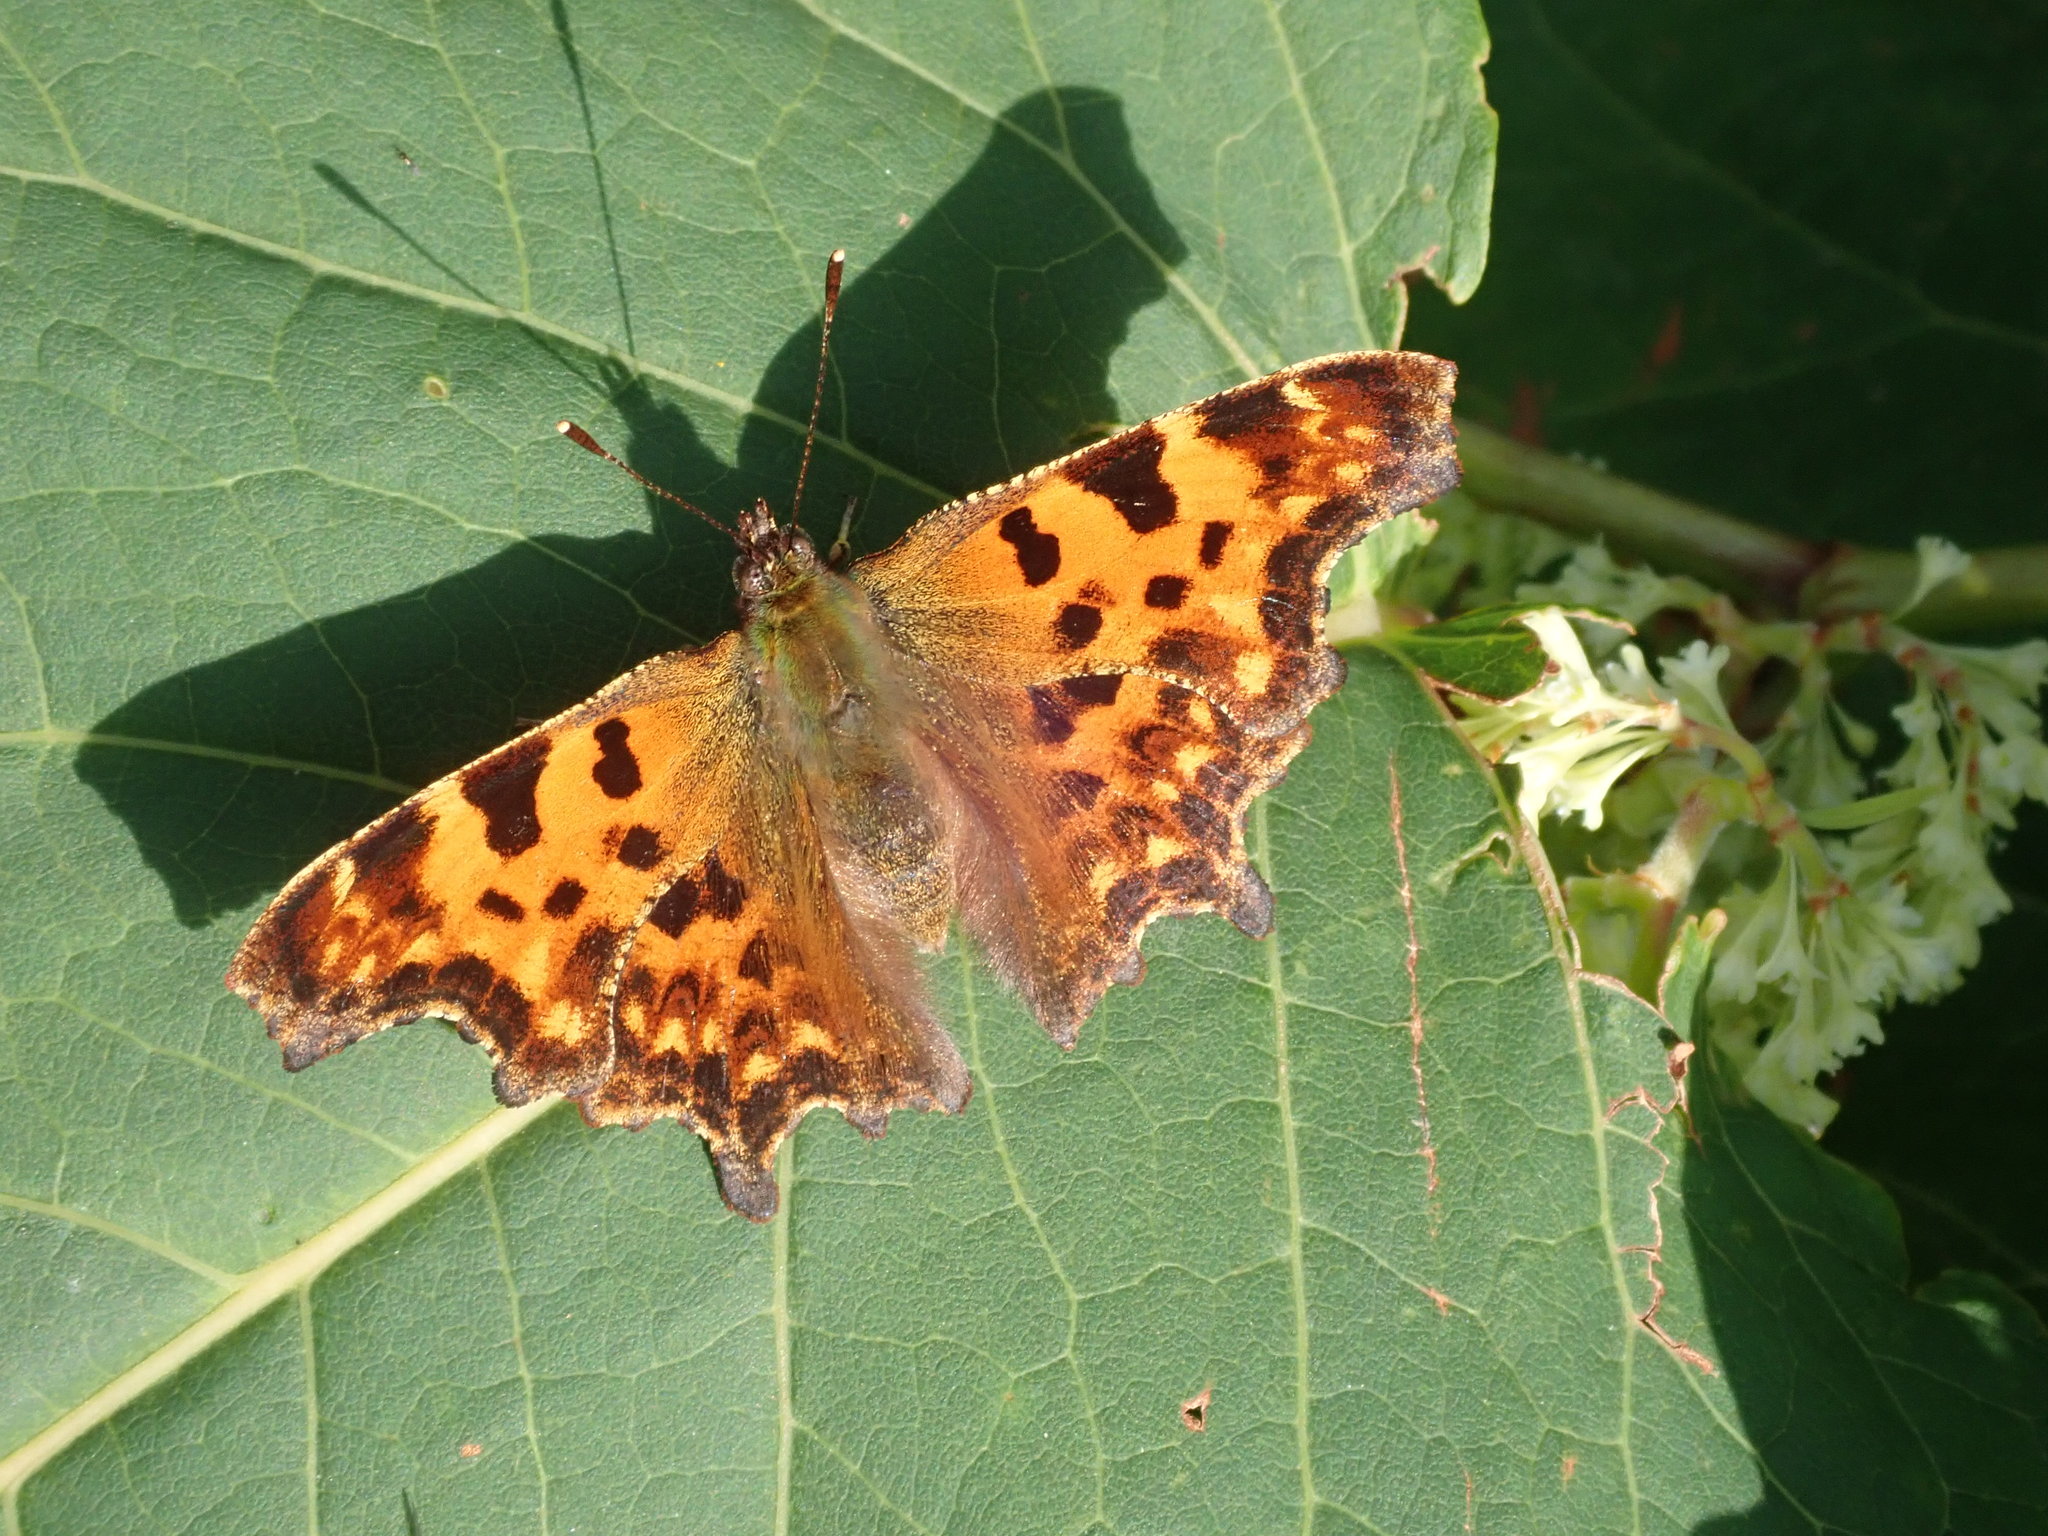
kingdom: Animalia
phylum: Arthropoda
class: Insecta
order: Lepidoptera
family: Nymphalidae
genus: Polygonia
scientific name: Polygonia c-album
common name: Comma
